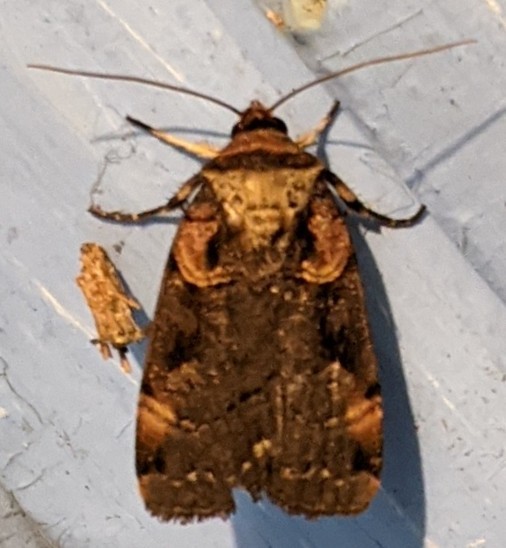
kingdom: Animalia
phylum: Arthropoda
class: Insecta
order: Lepidoptera
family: Noctuidae
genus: Pseudohermonassa
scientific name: Pseudohermonassa bicarnea
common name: Pink spotted dart
